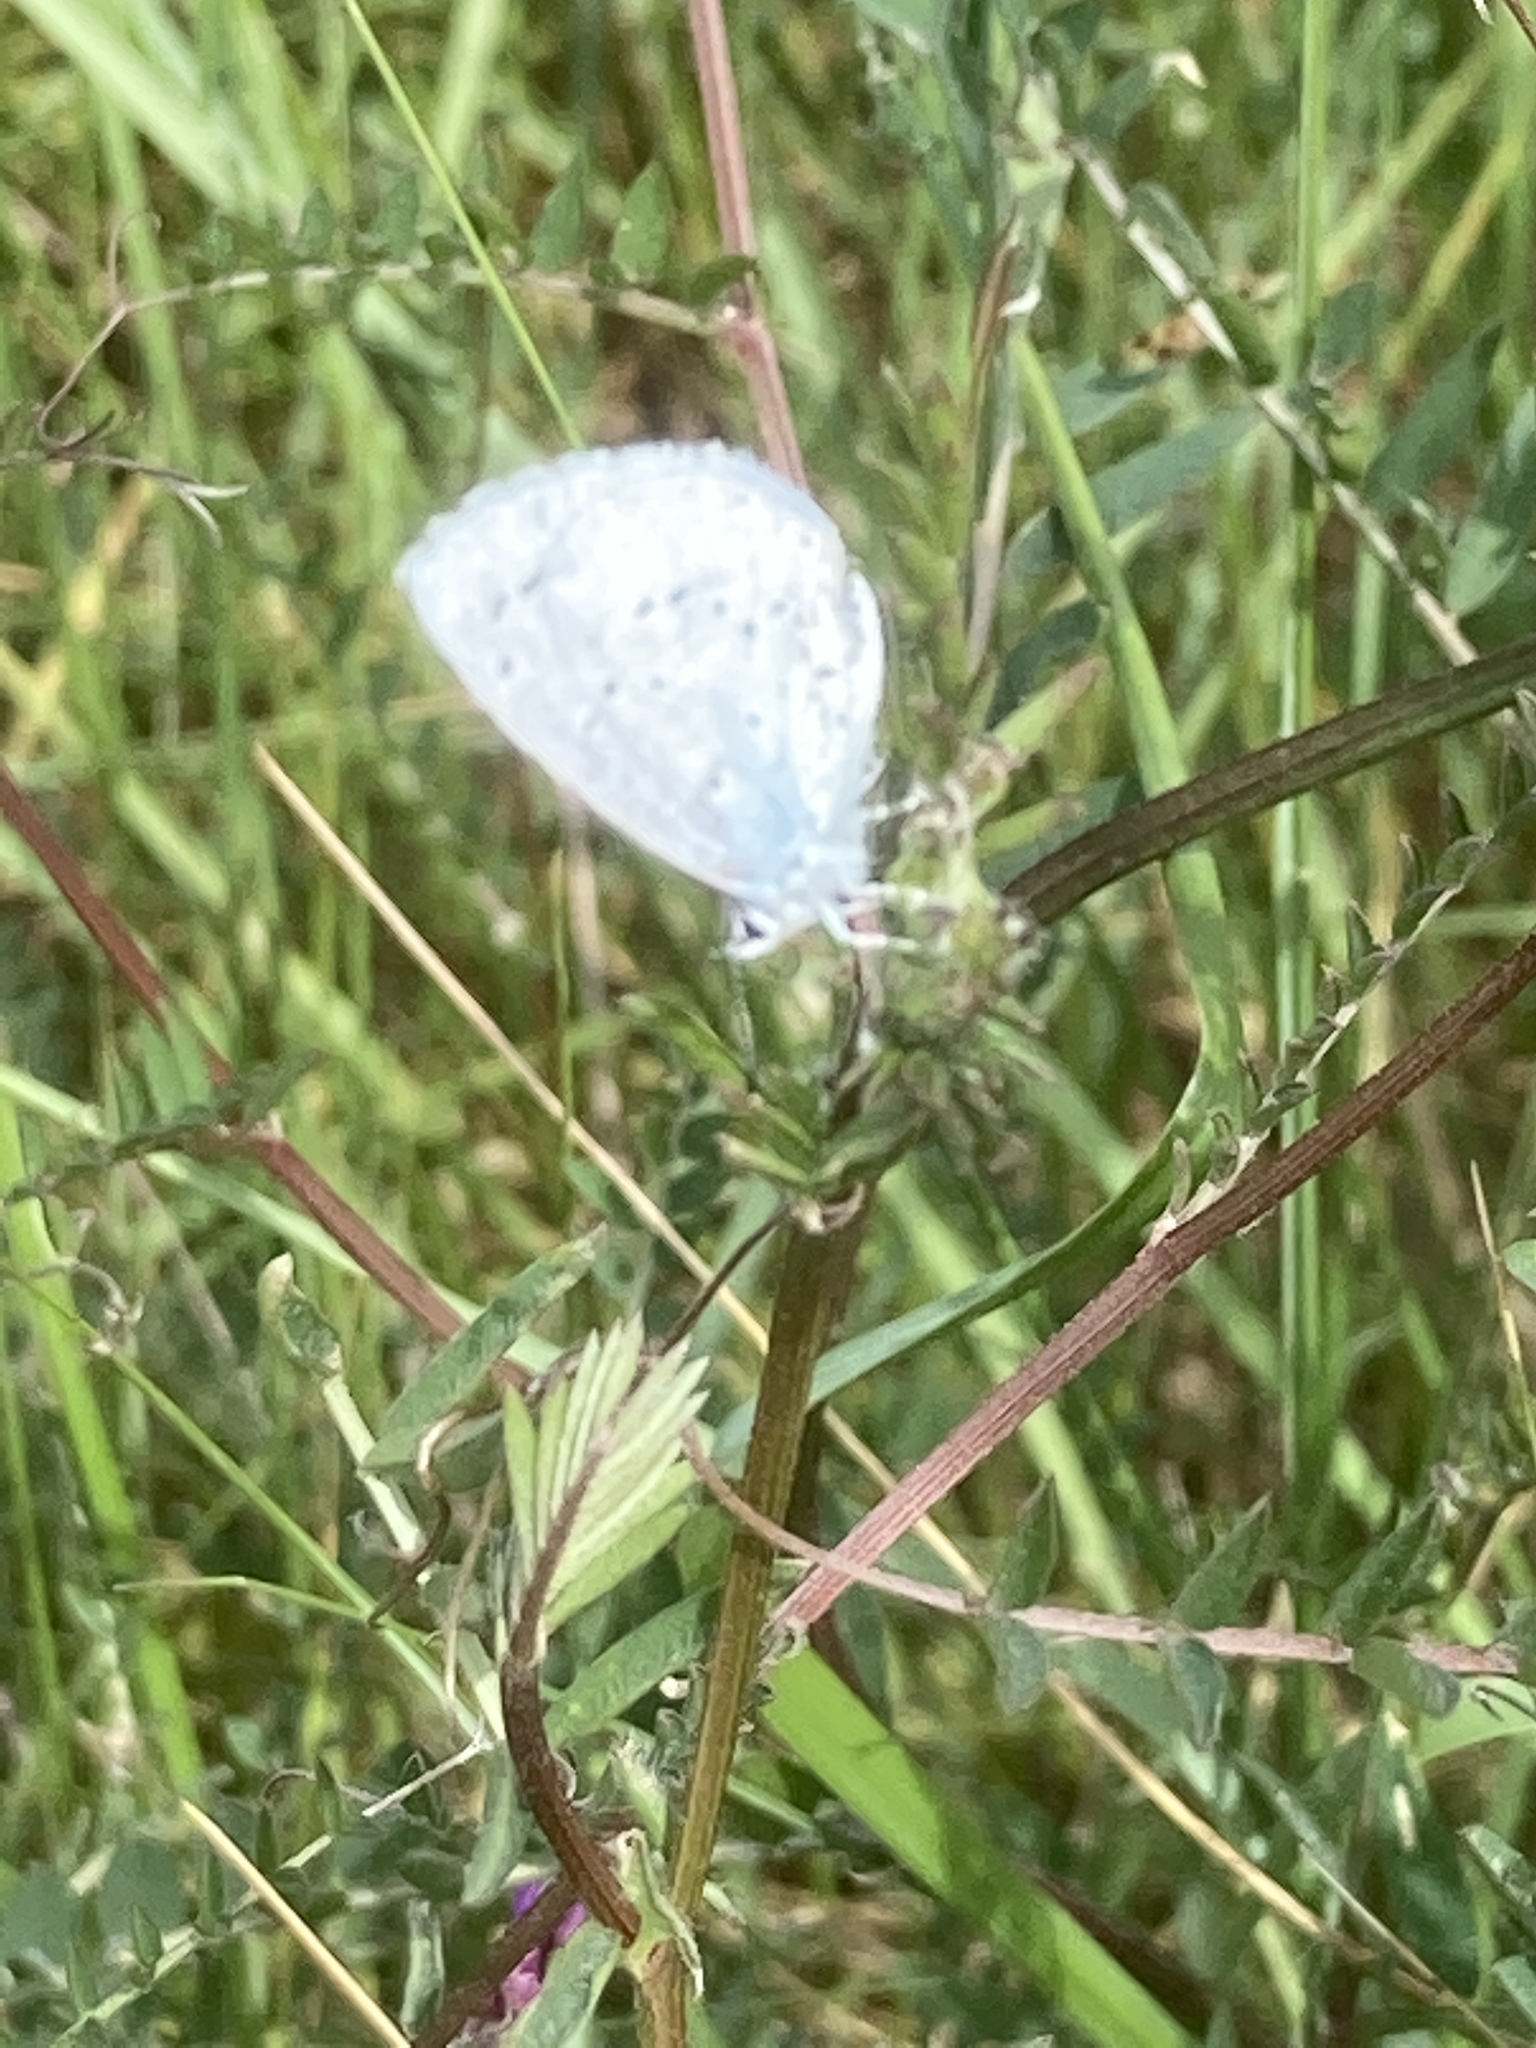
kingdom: Animalia
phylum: Arthropoda
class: Insecta
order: Lepidoptera
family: Lycaenidae
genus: Celastrina
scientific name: Celastrina argiolus
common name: Holly blue
